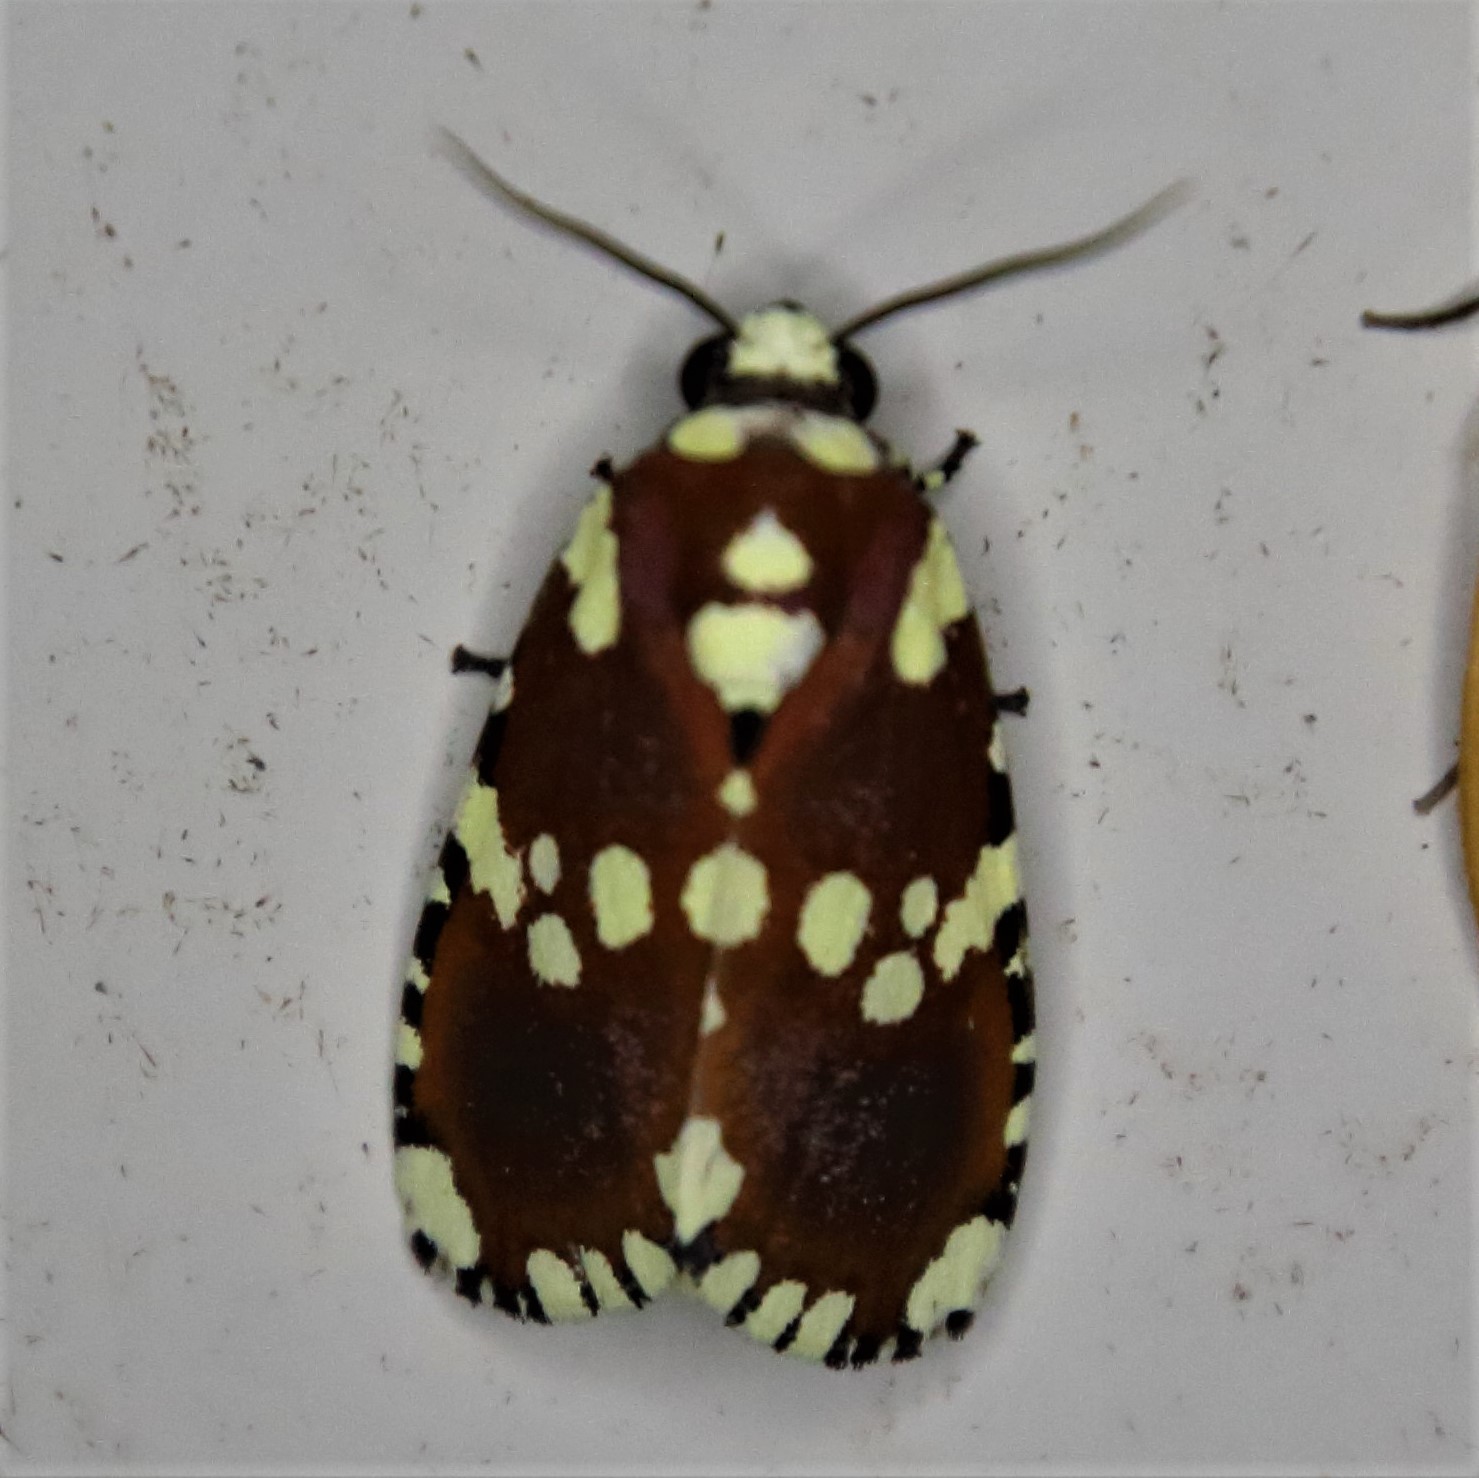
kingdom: Animalia
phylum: Arthropoda
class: Insecta
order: Lepidoptera
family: Noctuidae
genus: Yepcalphis
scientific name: Yepcalphis dilectissima
